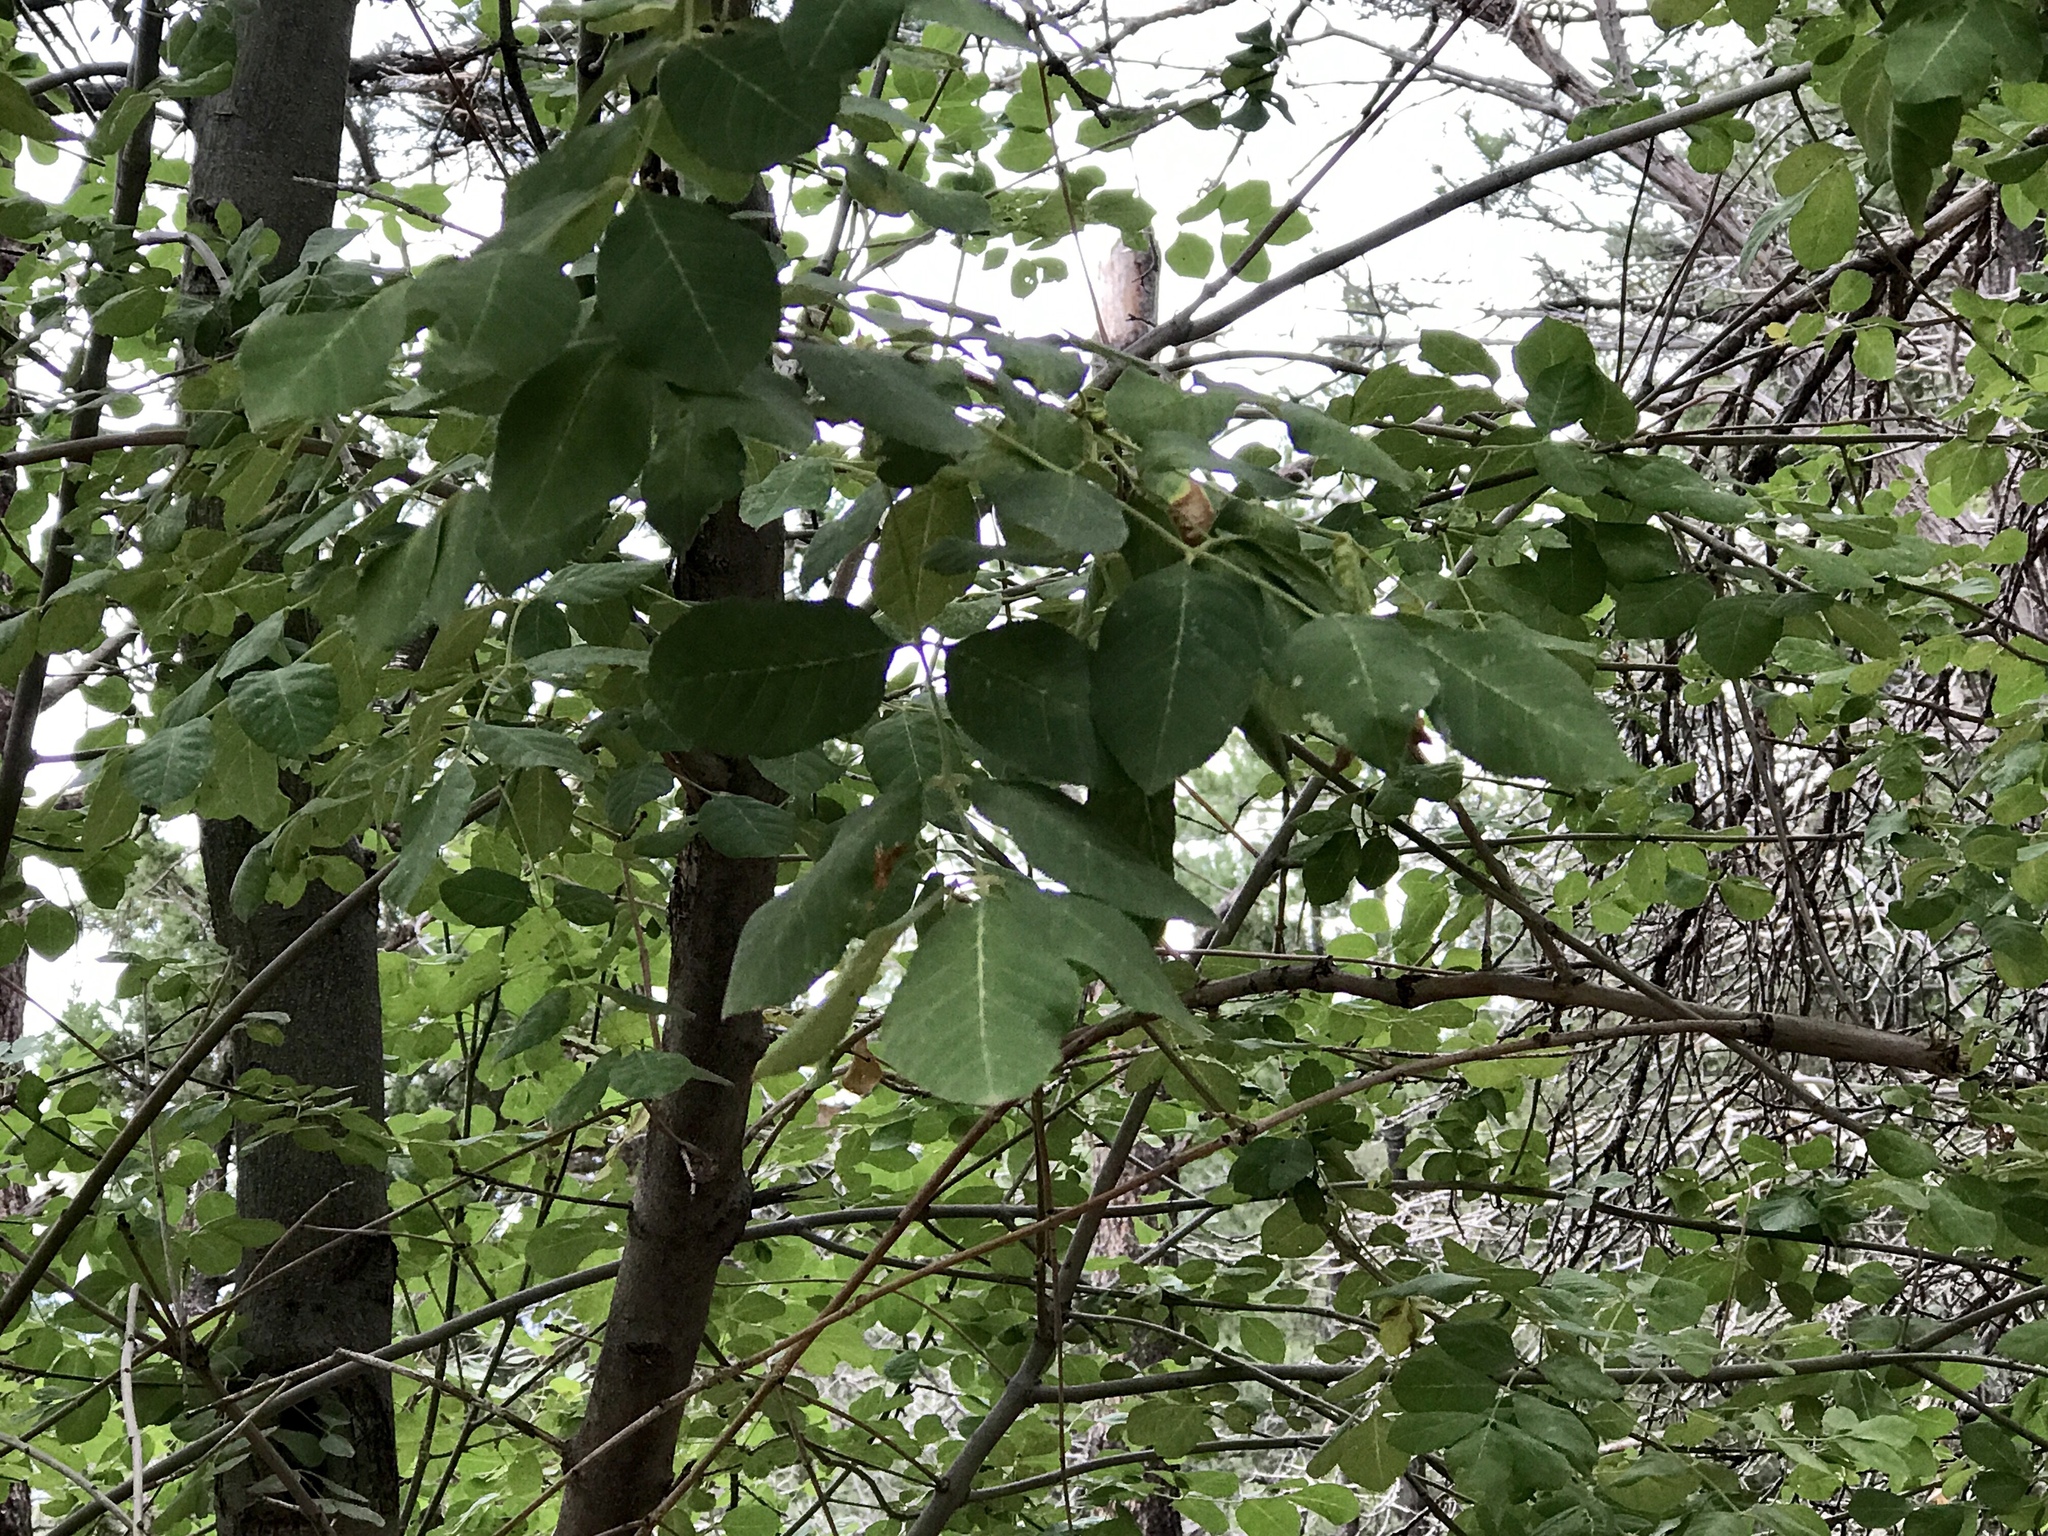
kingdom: Plantae
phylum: Tracheophyta
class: Magnoliopsida
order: Lamiales
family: Oleaceae
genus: Fraxinus
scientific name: Fraxinus velutina
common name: Arizon ash
